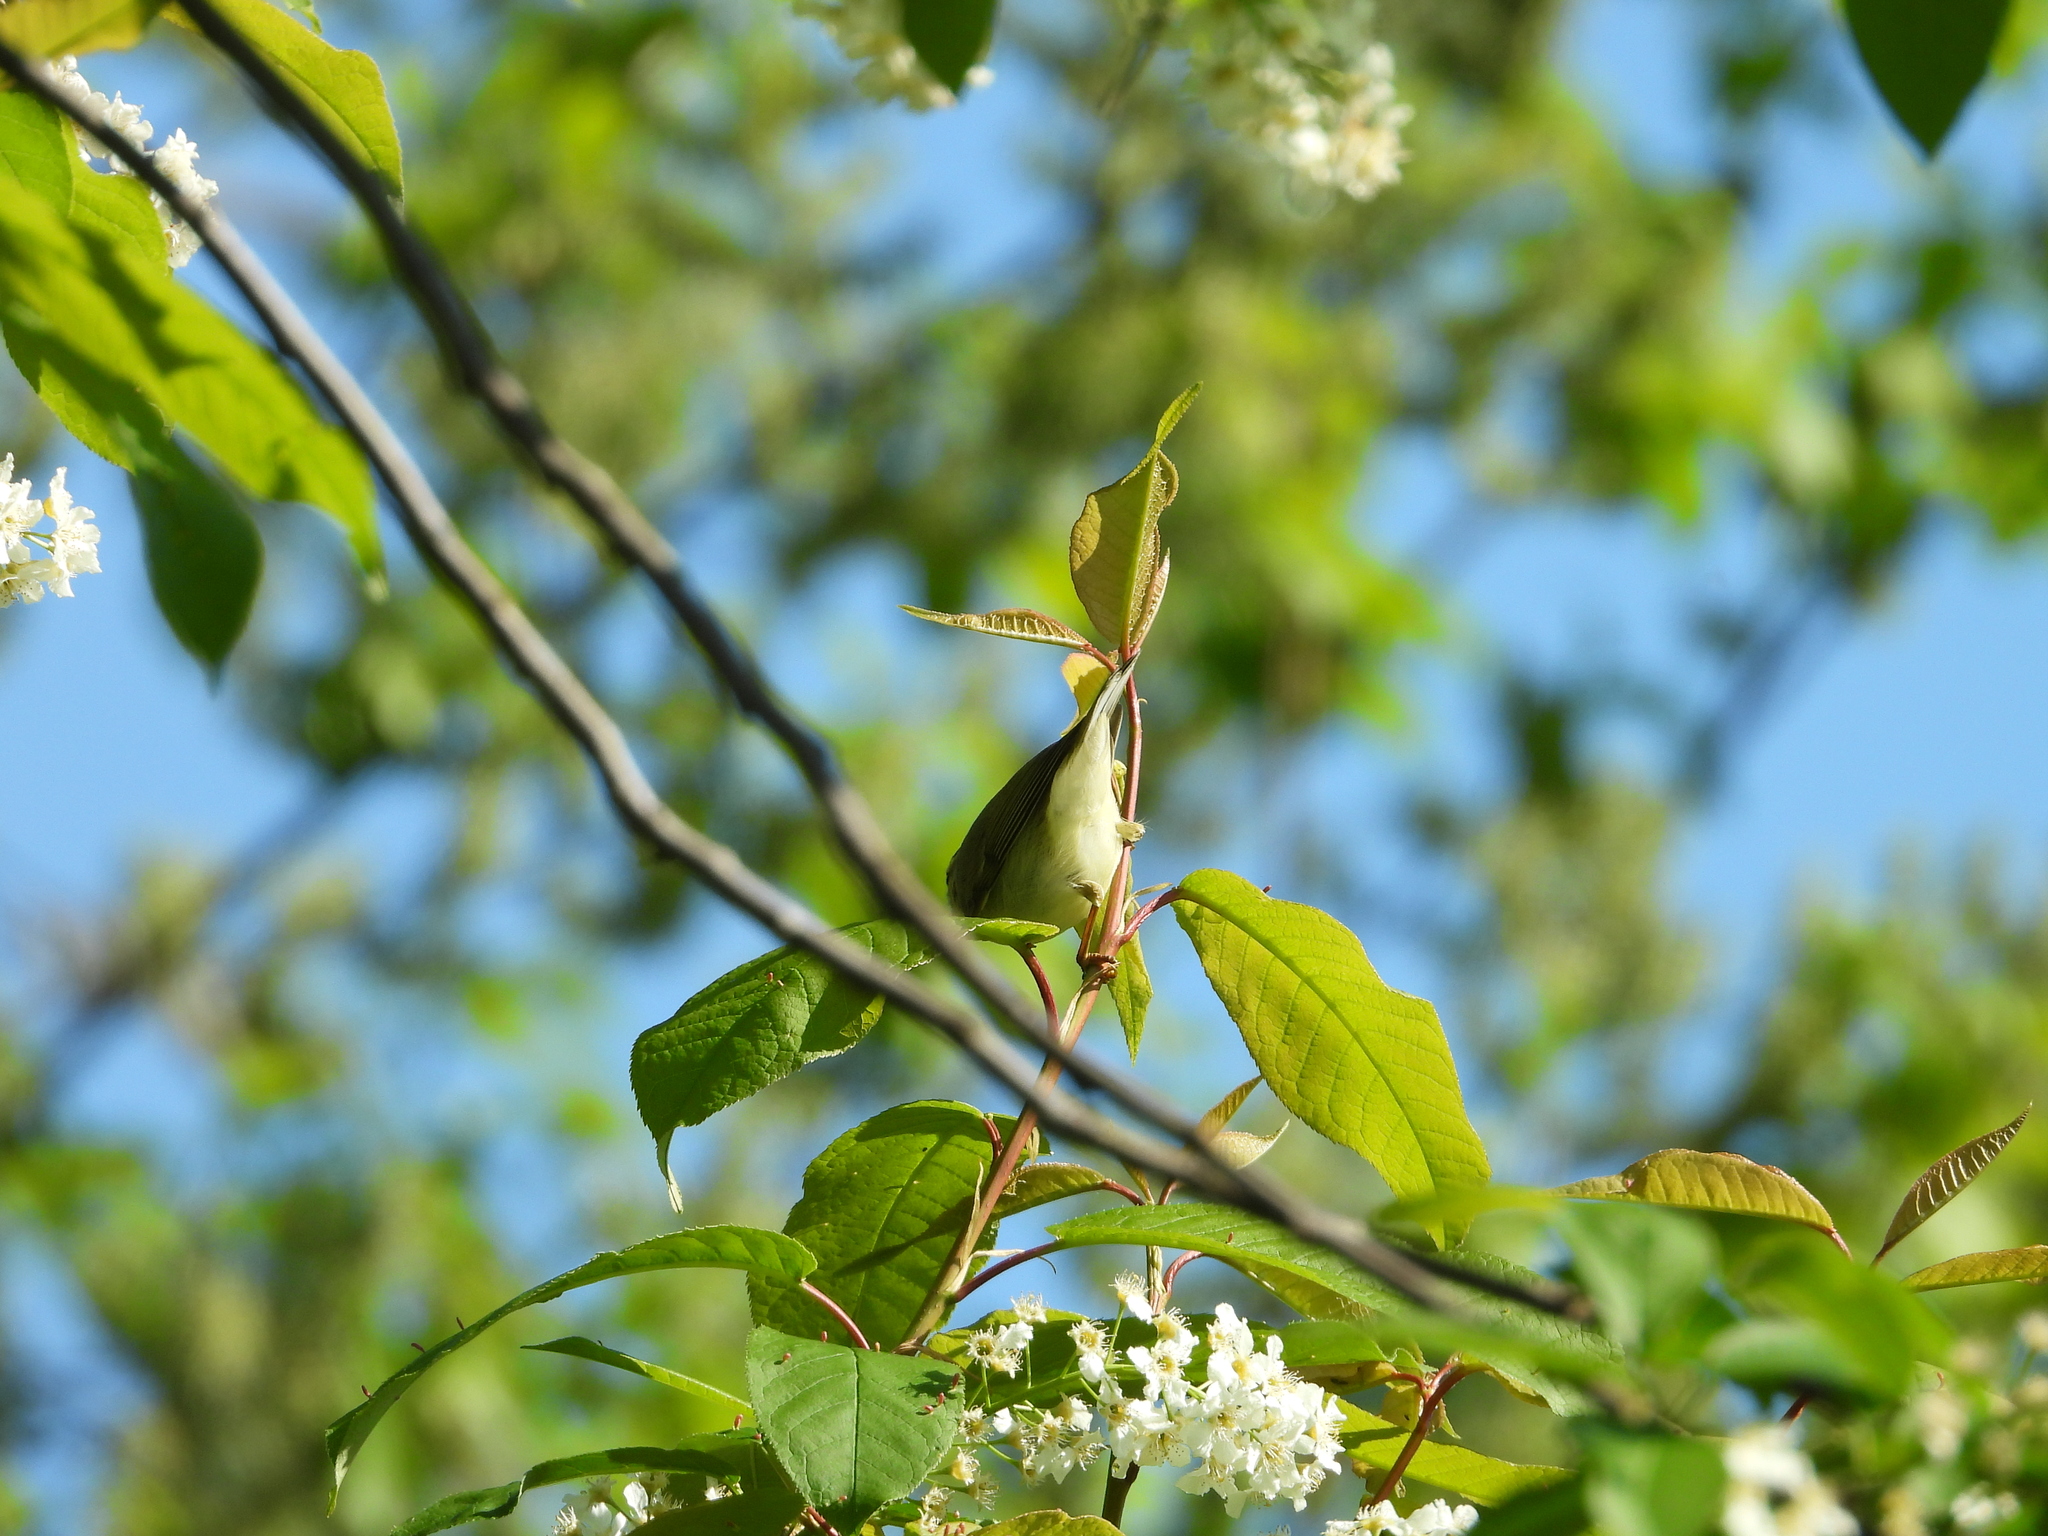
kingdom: Animalia
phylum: Chordata
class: Aves
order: Passeriformes
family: Phylloscopidae
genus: Phylloscopus
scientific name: Phylloscopus trochilus
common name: Willow warbler
